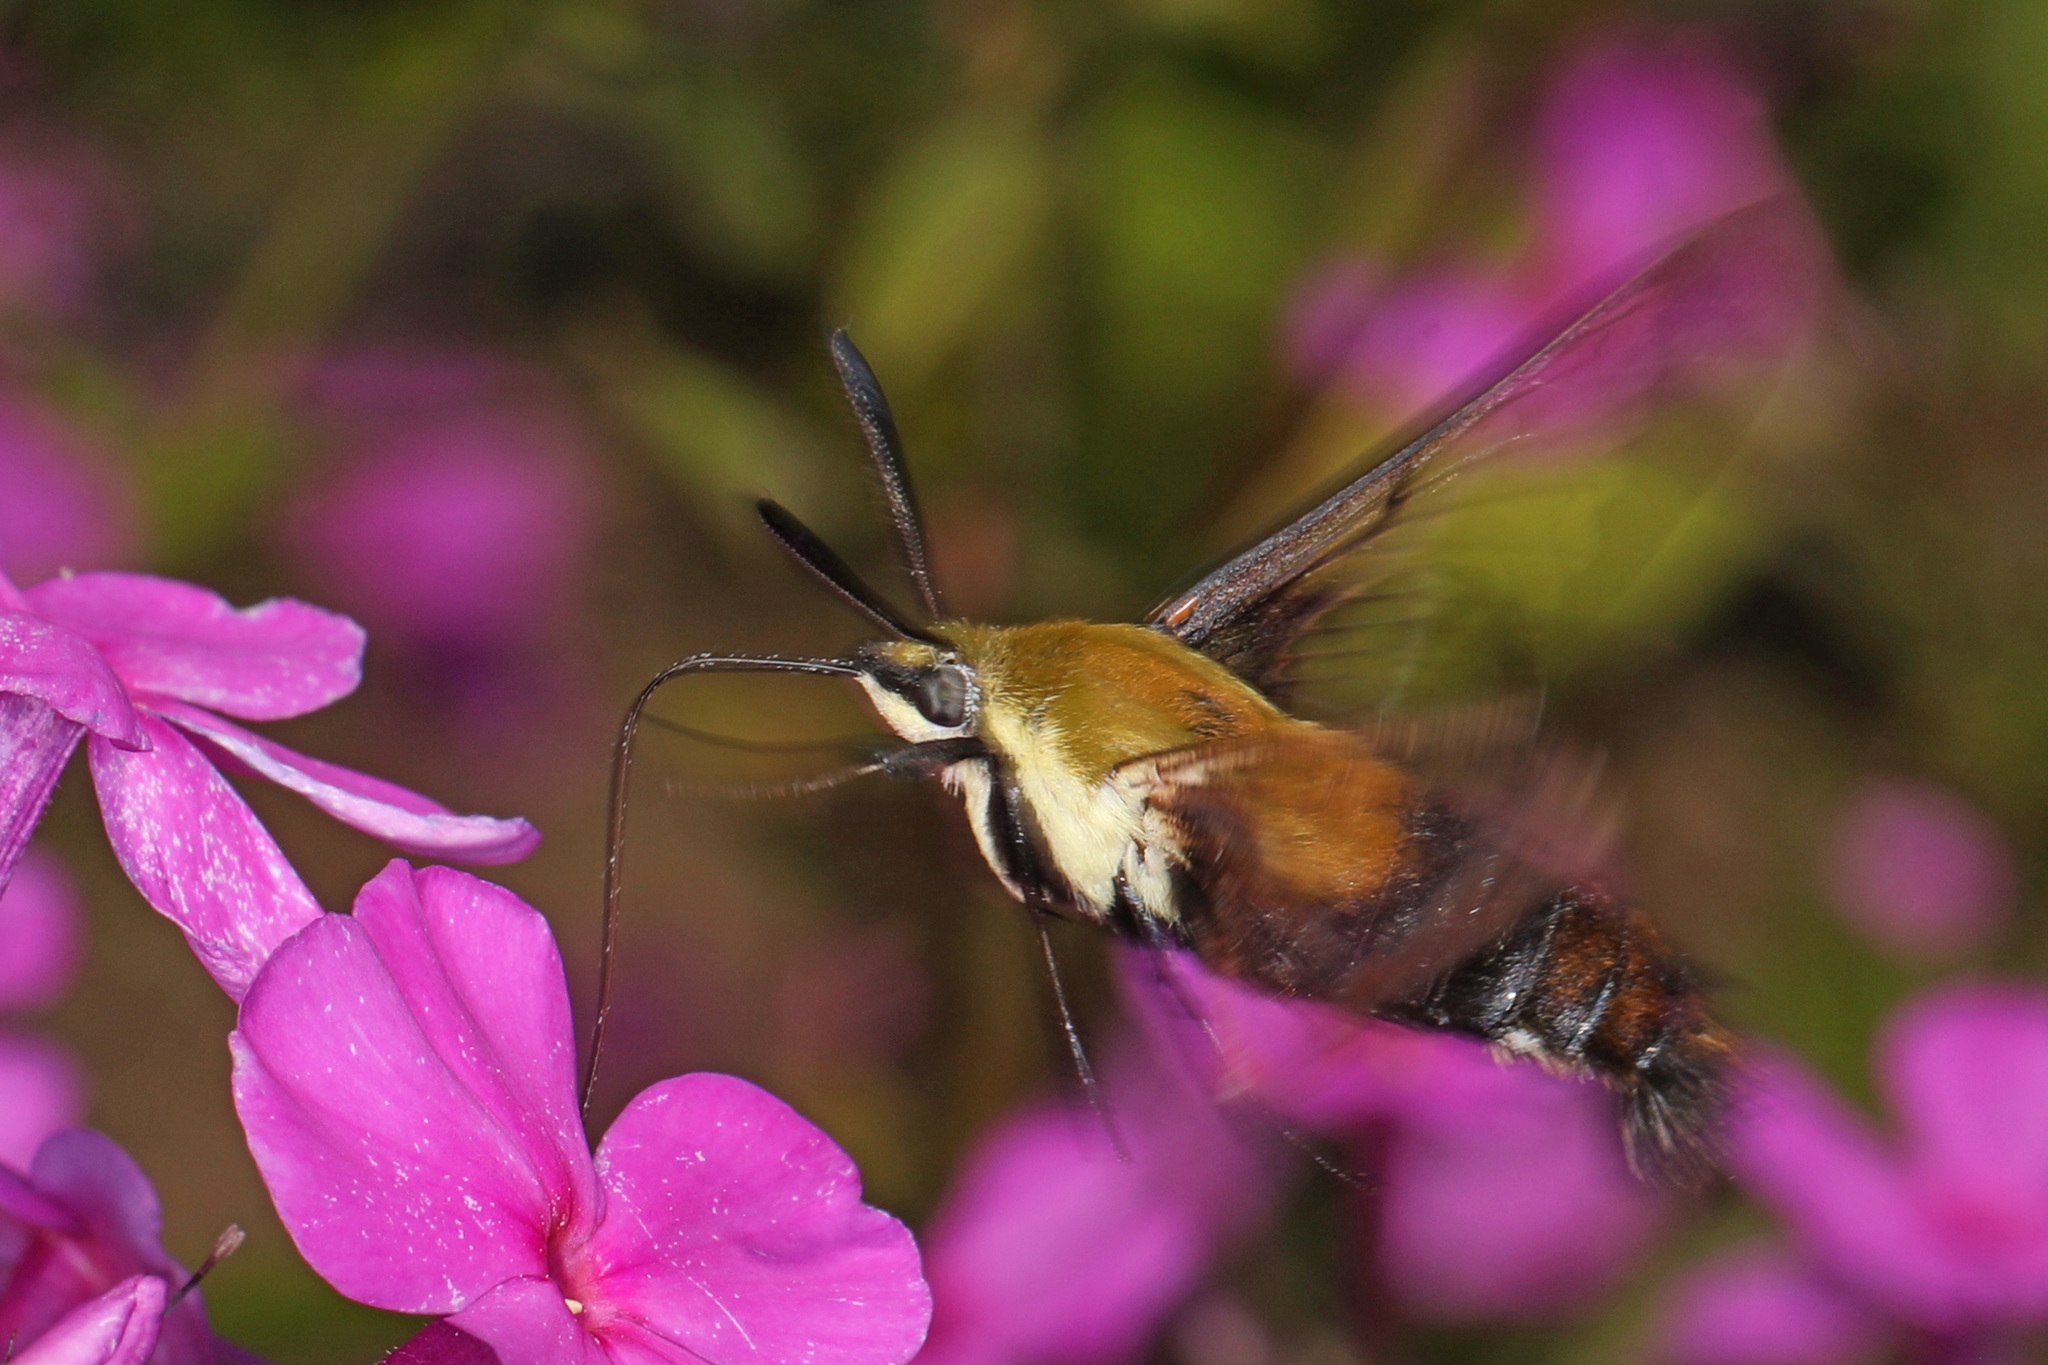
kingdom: Animalia
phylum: Arthropoda
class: Insecta
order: Lepidoptera
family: Sphingidae
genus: Hemaris
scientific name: Hemaris diffinis
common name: Bumblebee moth
